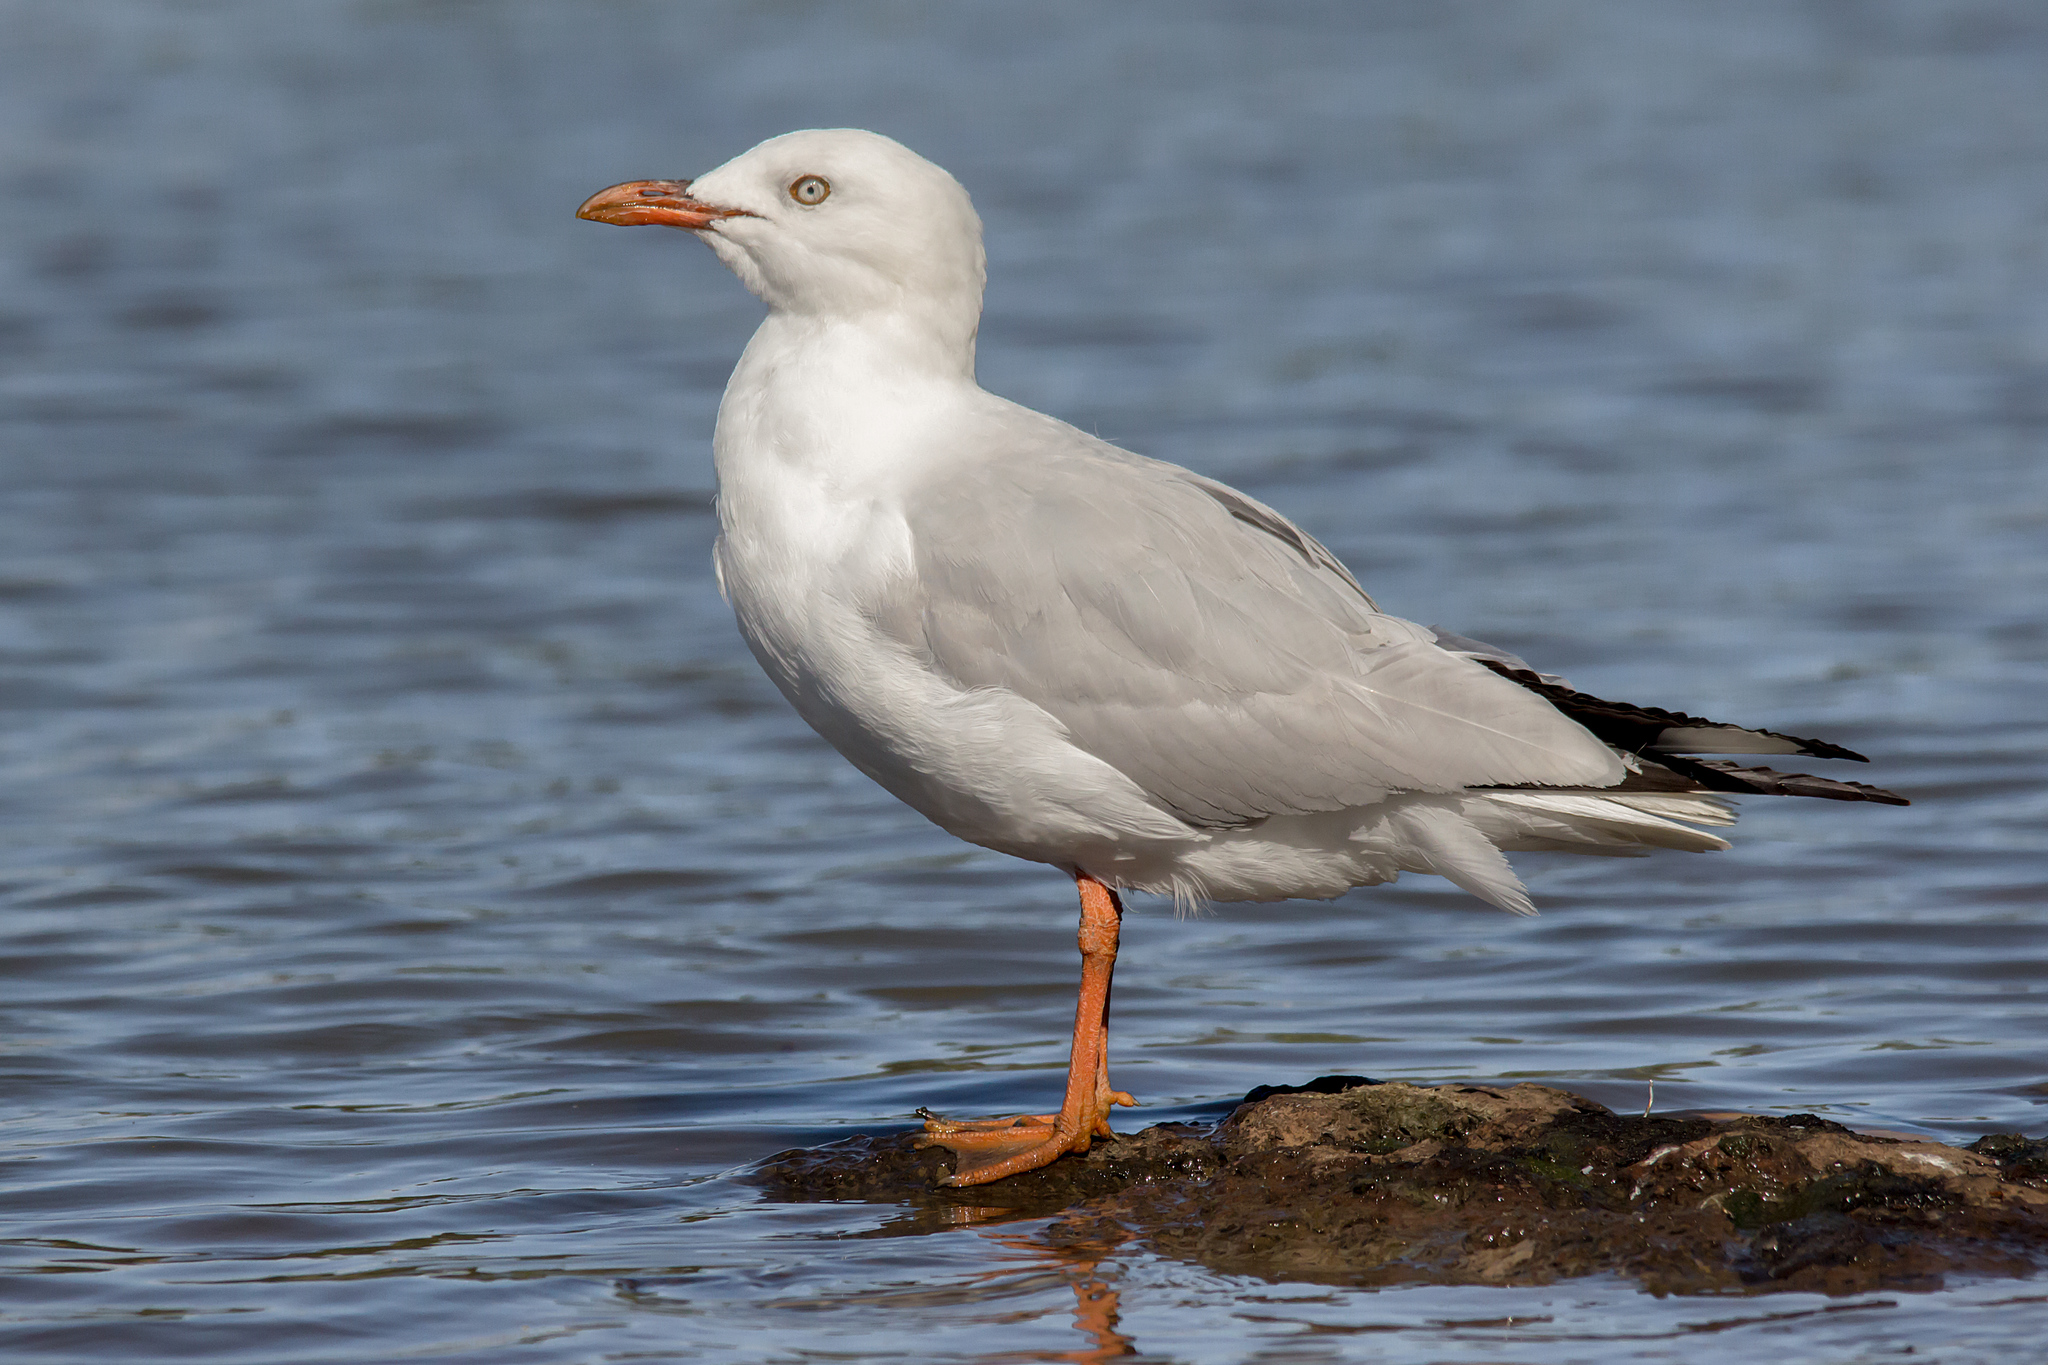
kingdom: Animalia
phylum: Chordata
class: Aves
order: Charadriiformes
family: Laridae
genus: Chroicocephalus
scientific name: Chroicocephalus novaehollandiae
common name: Silver gull
